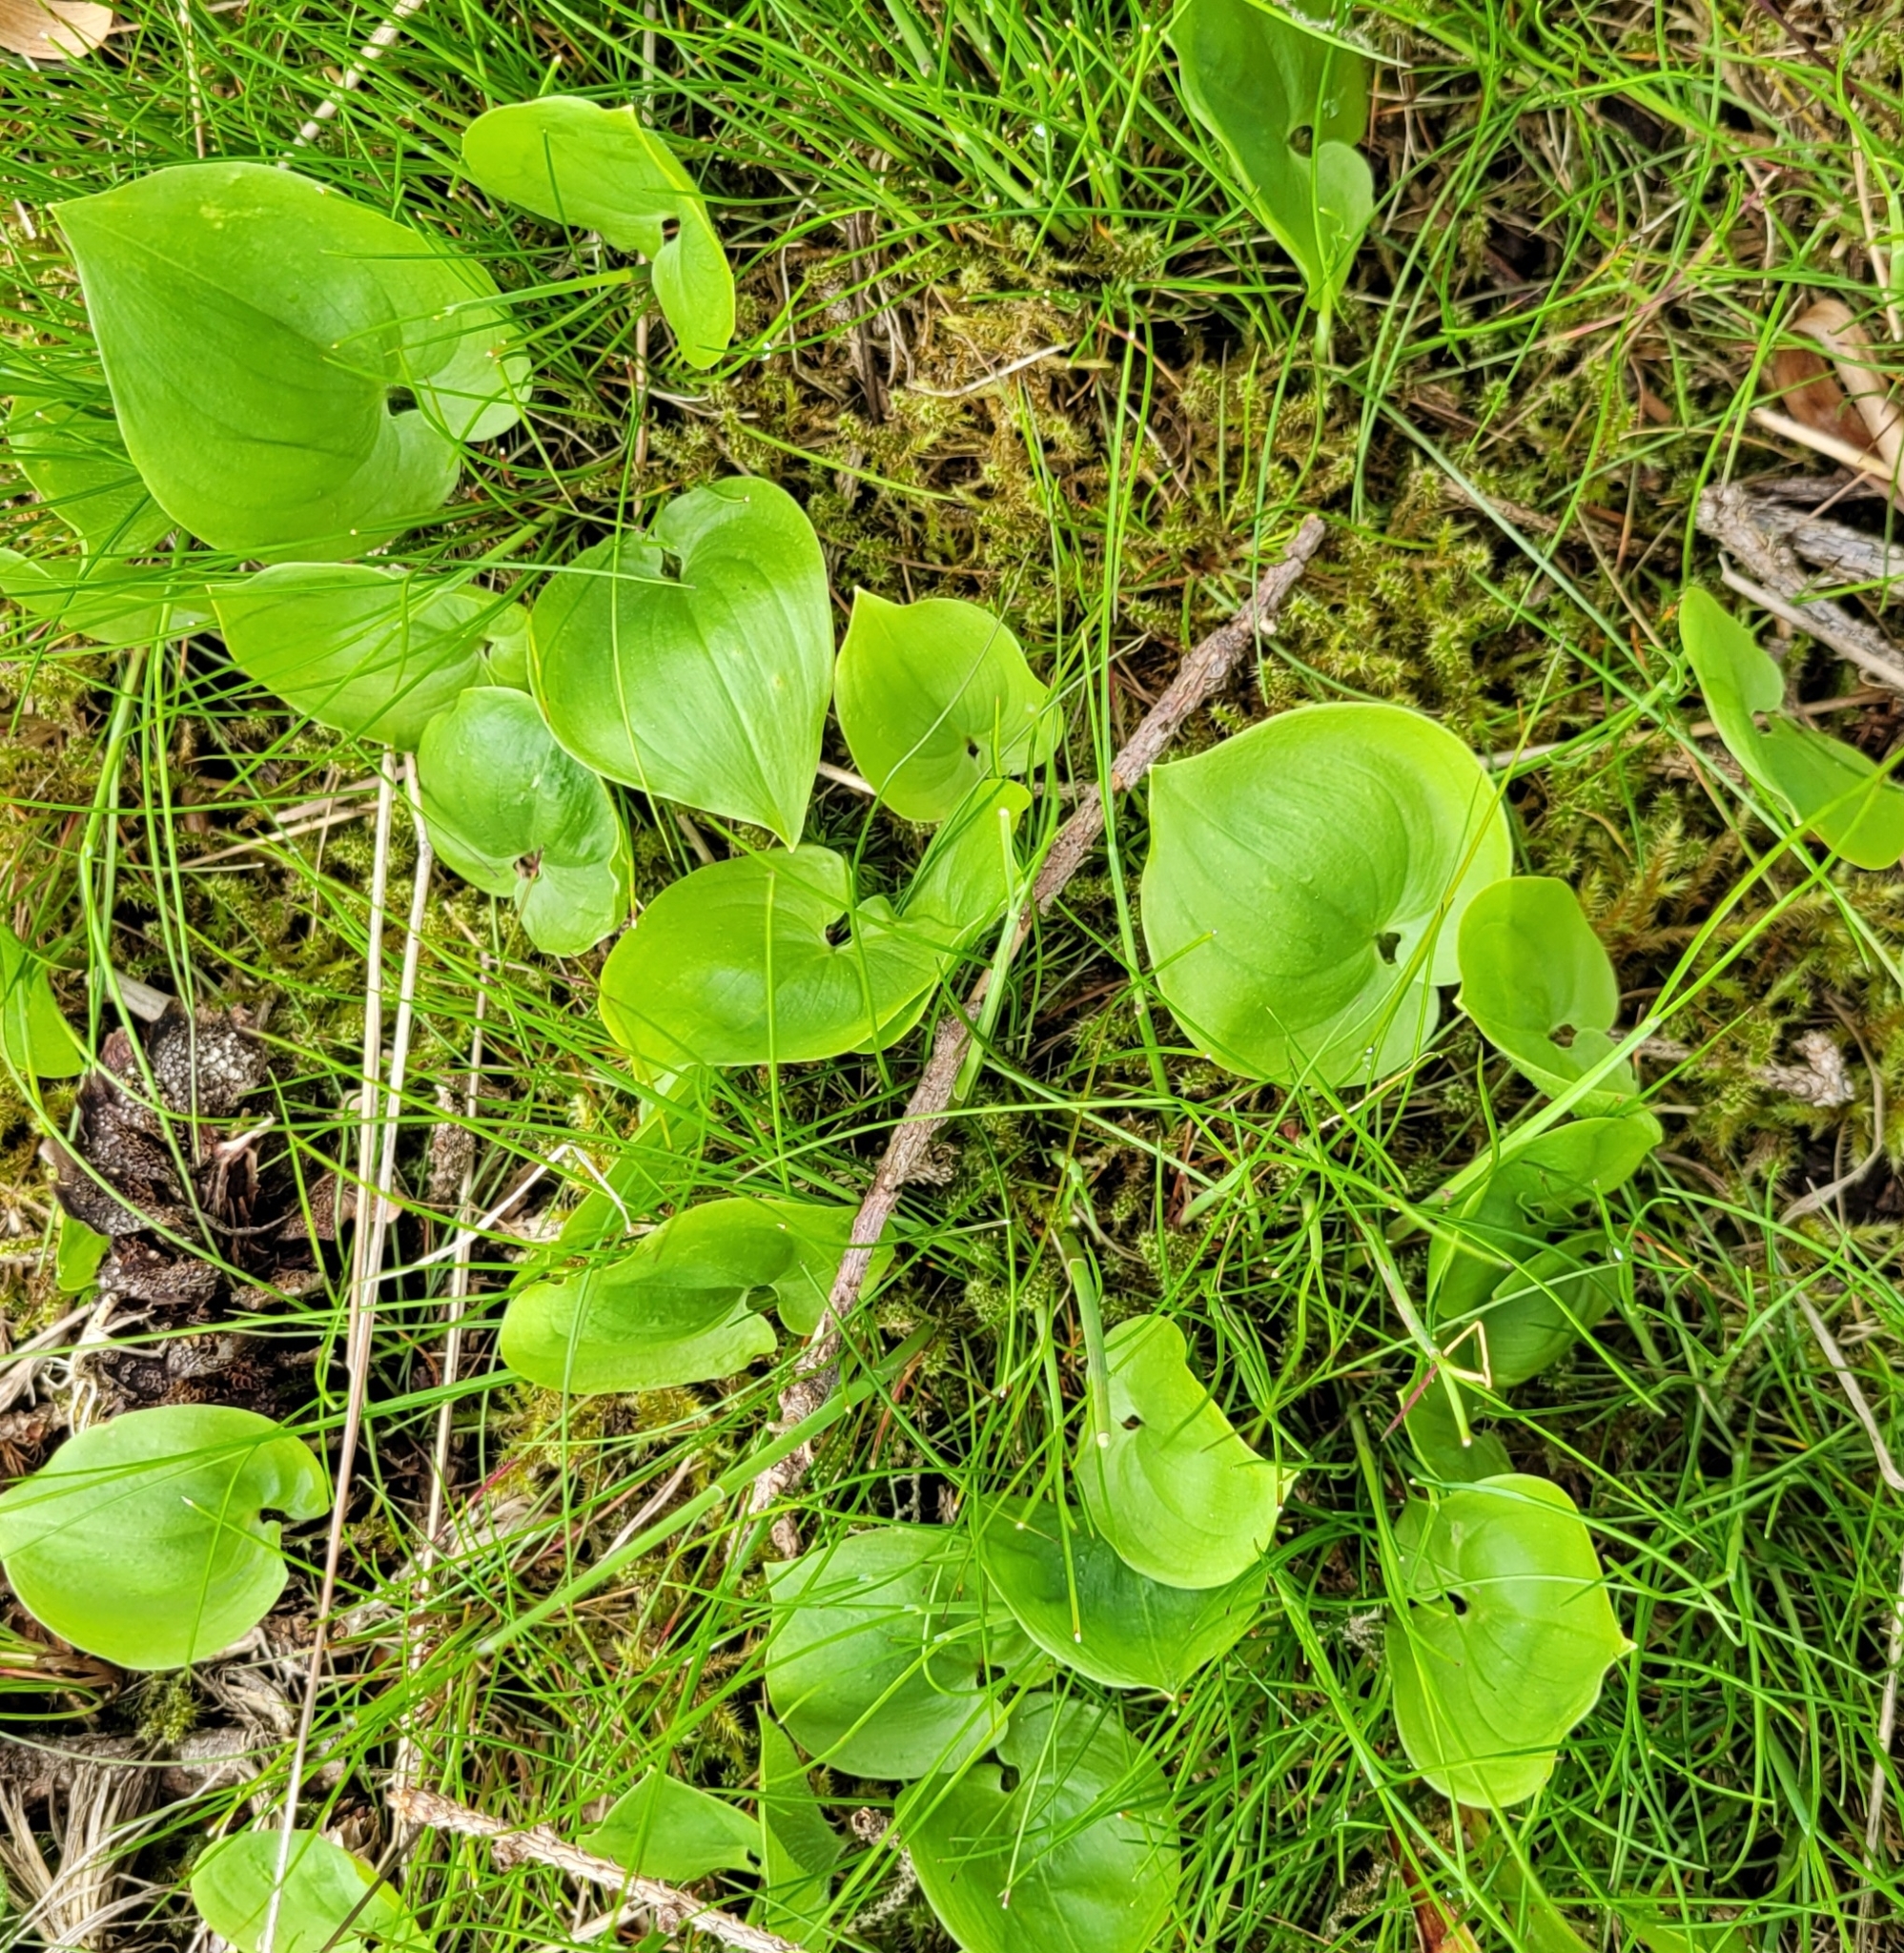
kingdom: Plantae
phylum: Tracheophyta
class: Liliopsida
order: Asparagales
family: Asparagaceae
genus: Maianthemum
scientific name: Maianthemum bifolium
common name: May lily
